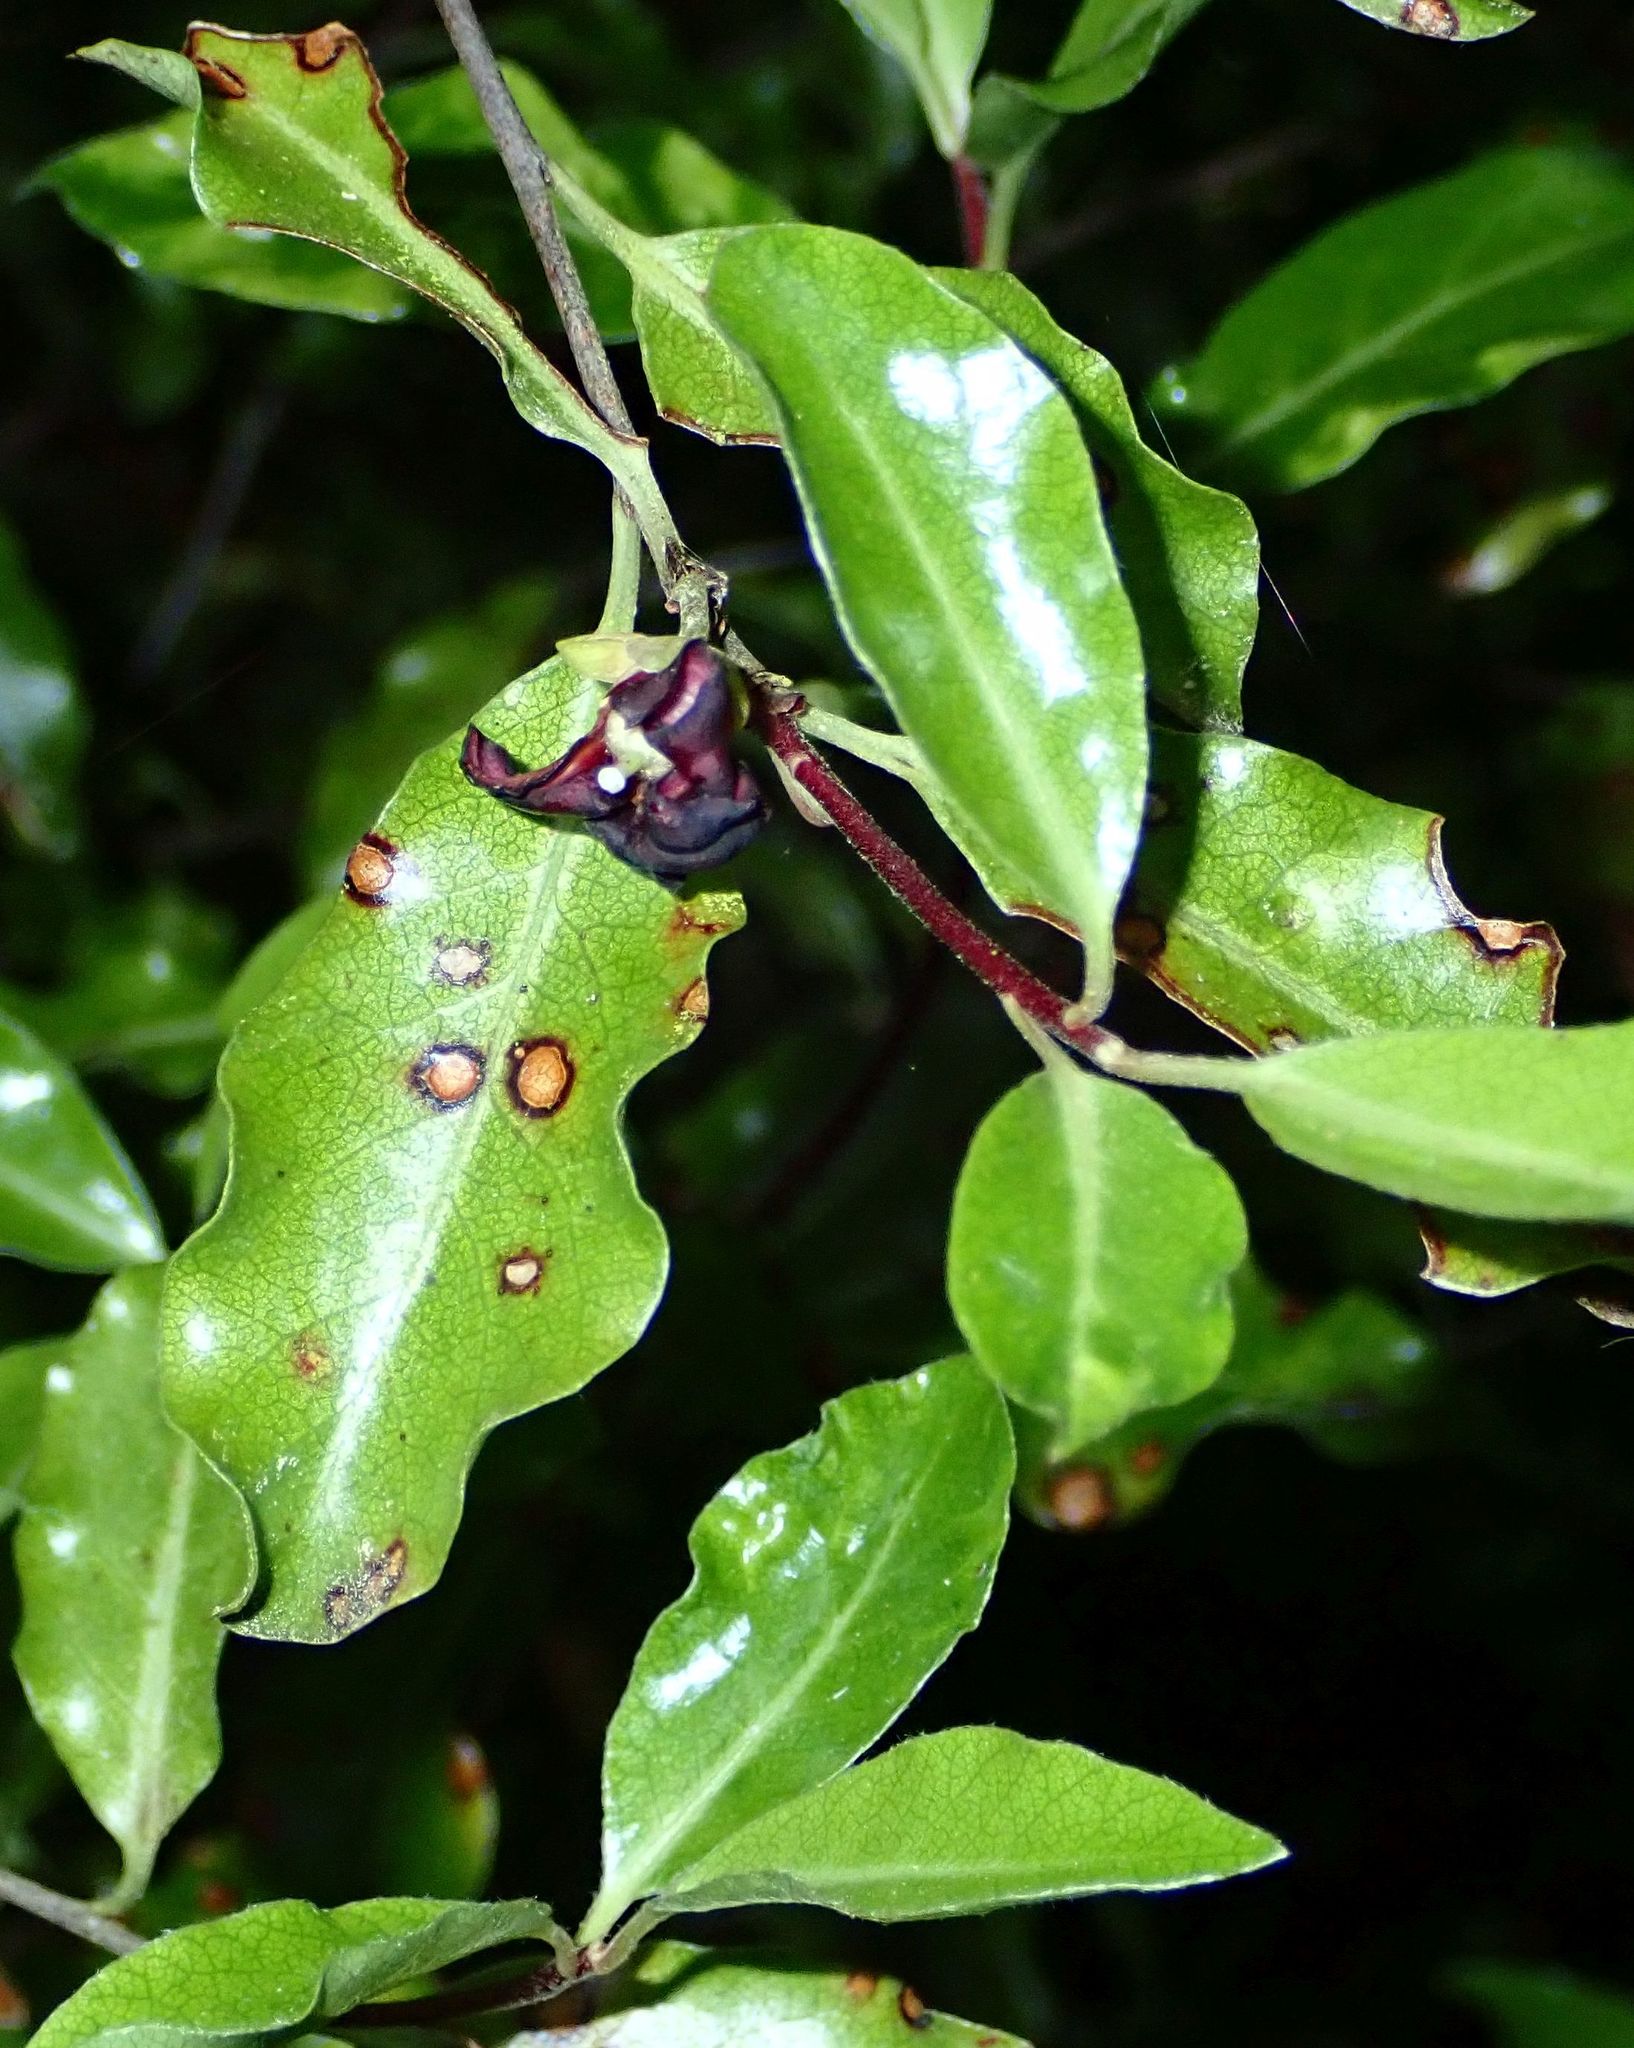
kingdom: Plantae
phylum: Tracheophyta
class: Magnoliopsida
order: Apiales
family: Pittosporaceae
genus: Pittosporum
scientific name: Pittosporum tenuifolium
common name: Kohuhu
